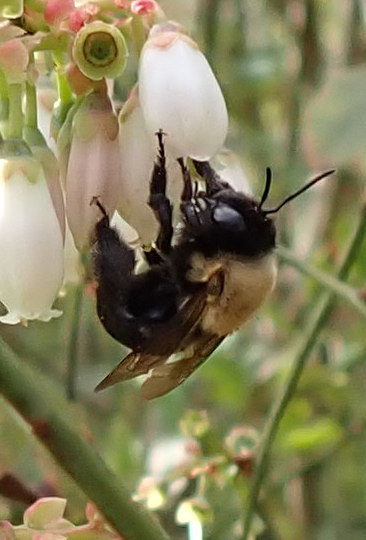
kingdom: Animalia
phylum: Arthropoda
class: Insecta
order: Hymenoptera
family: Apidae
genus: Habropoda
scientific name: Habropoda laboriosa
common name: Southeastern blueberry bee
